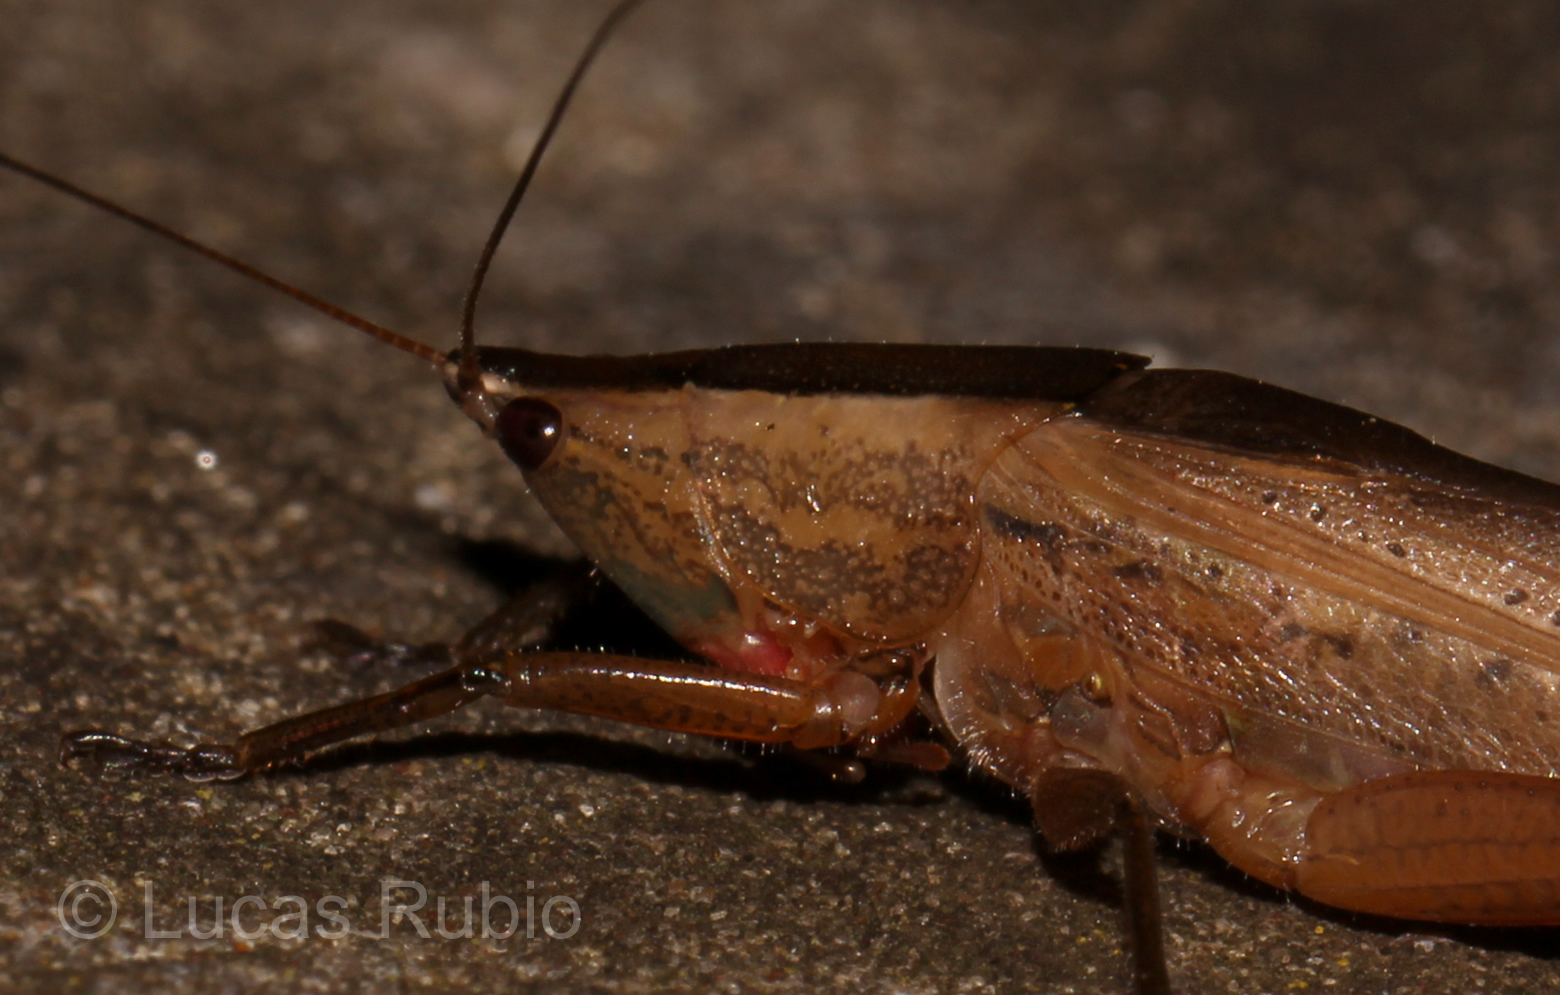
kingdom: Animalia
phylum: Arthropoda
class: Insecta
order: Orthoptera
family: Tettigoniidae
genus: Neoconocephalus
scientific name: Neoconocephalus vittifrons
